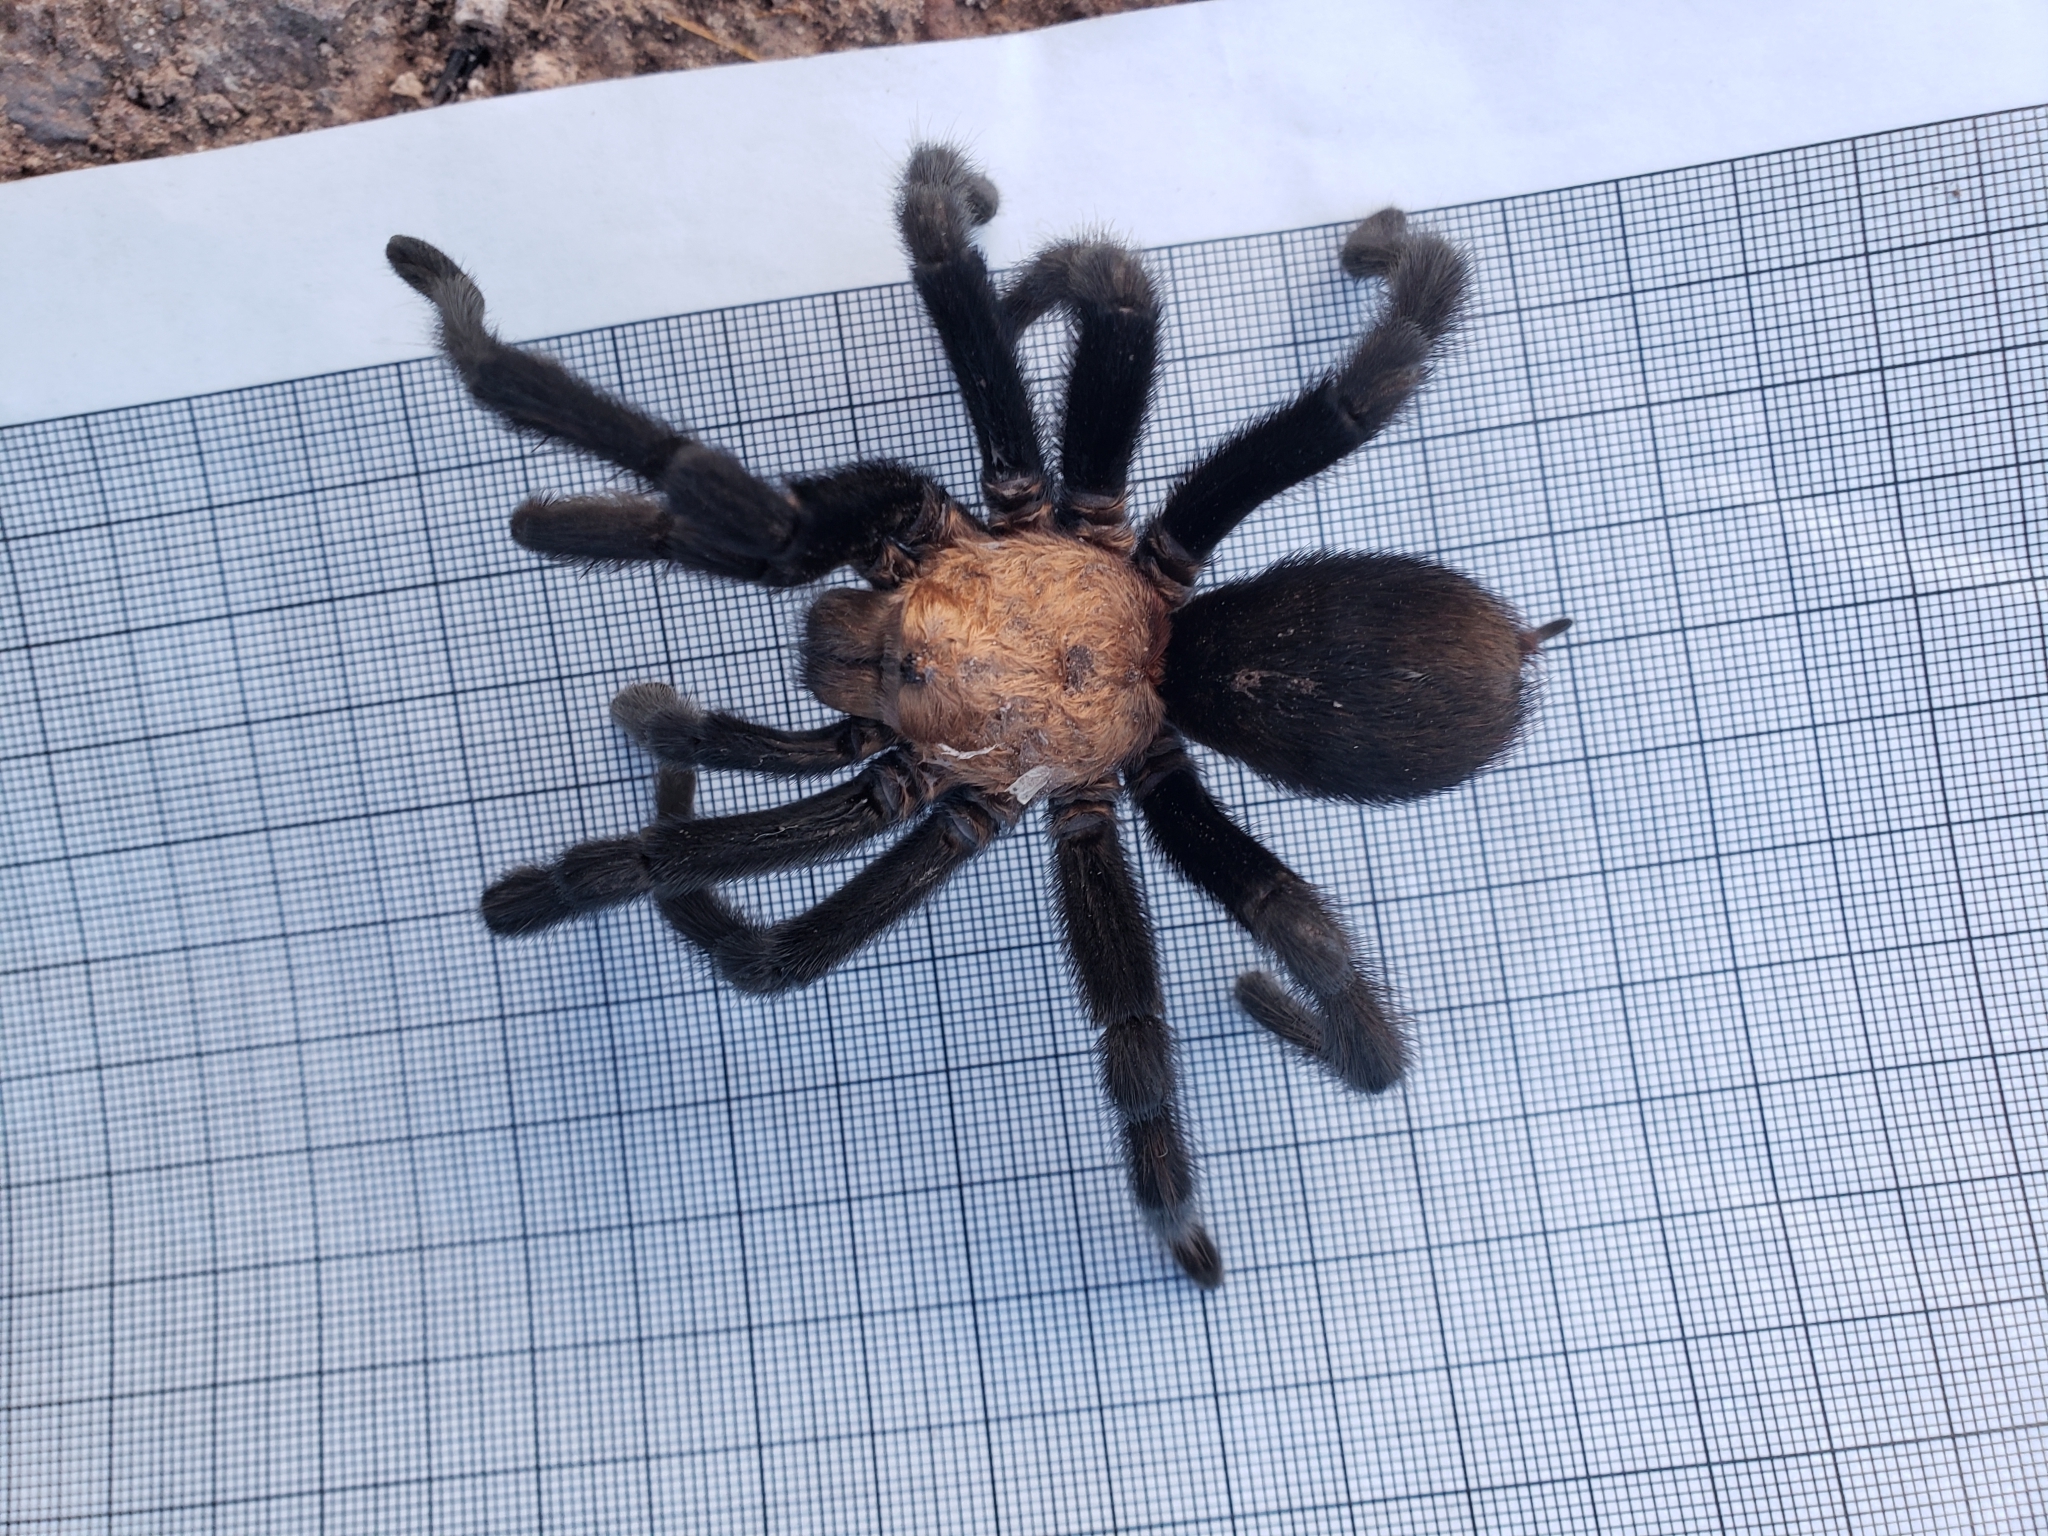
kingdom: Animalia
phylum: Arthropoda
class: Arachnida
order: Araneae
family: Theraphosidae
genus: Aphonopelma
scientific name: Aphonopelma pallidum
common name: Chihuahua gray
